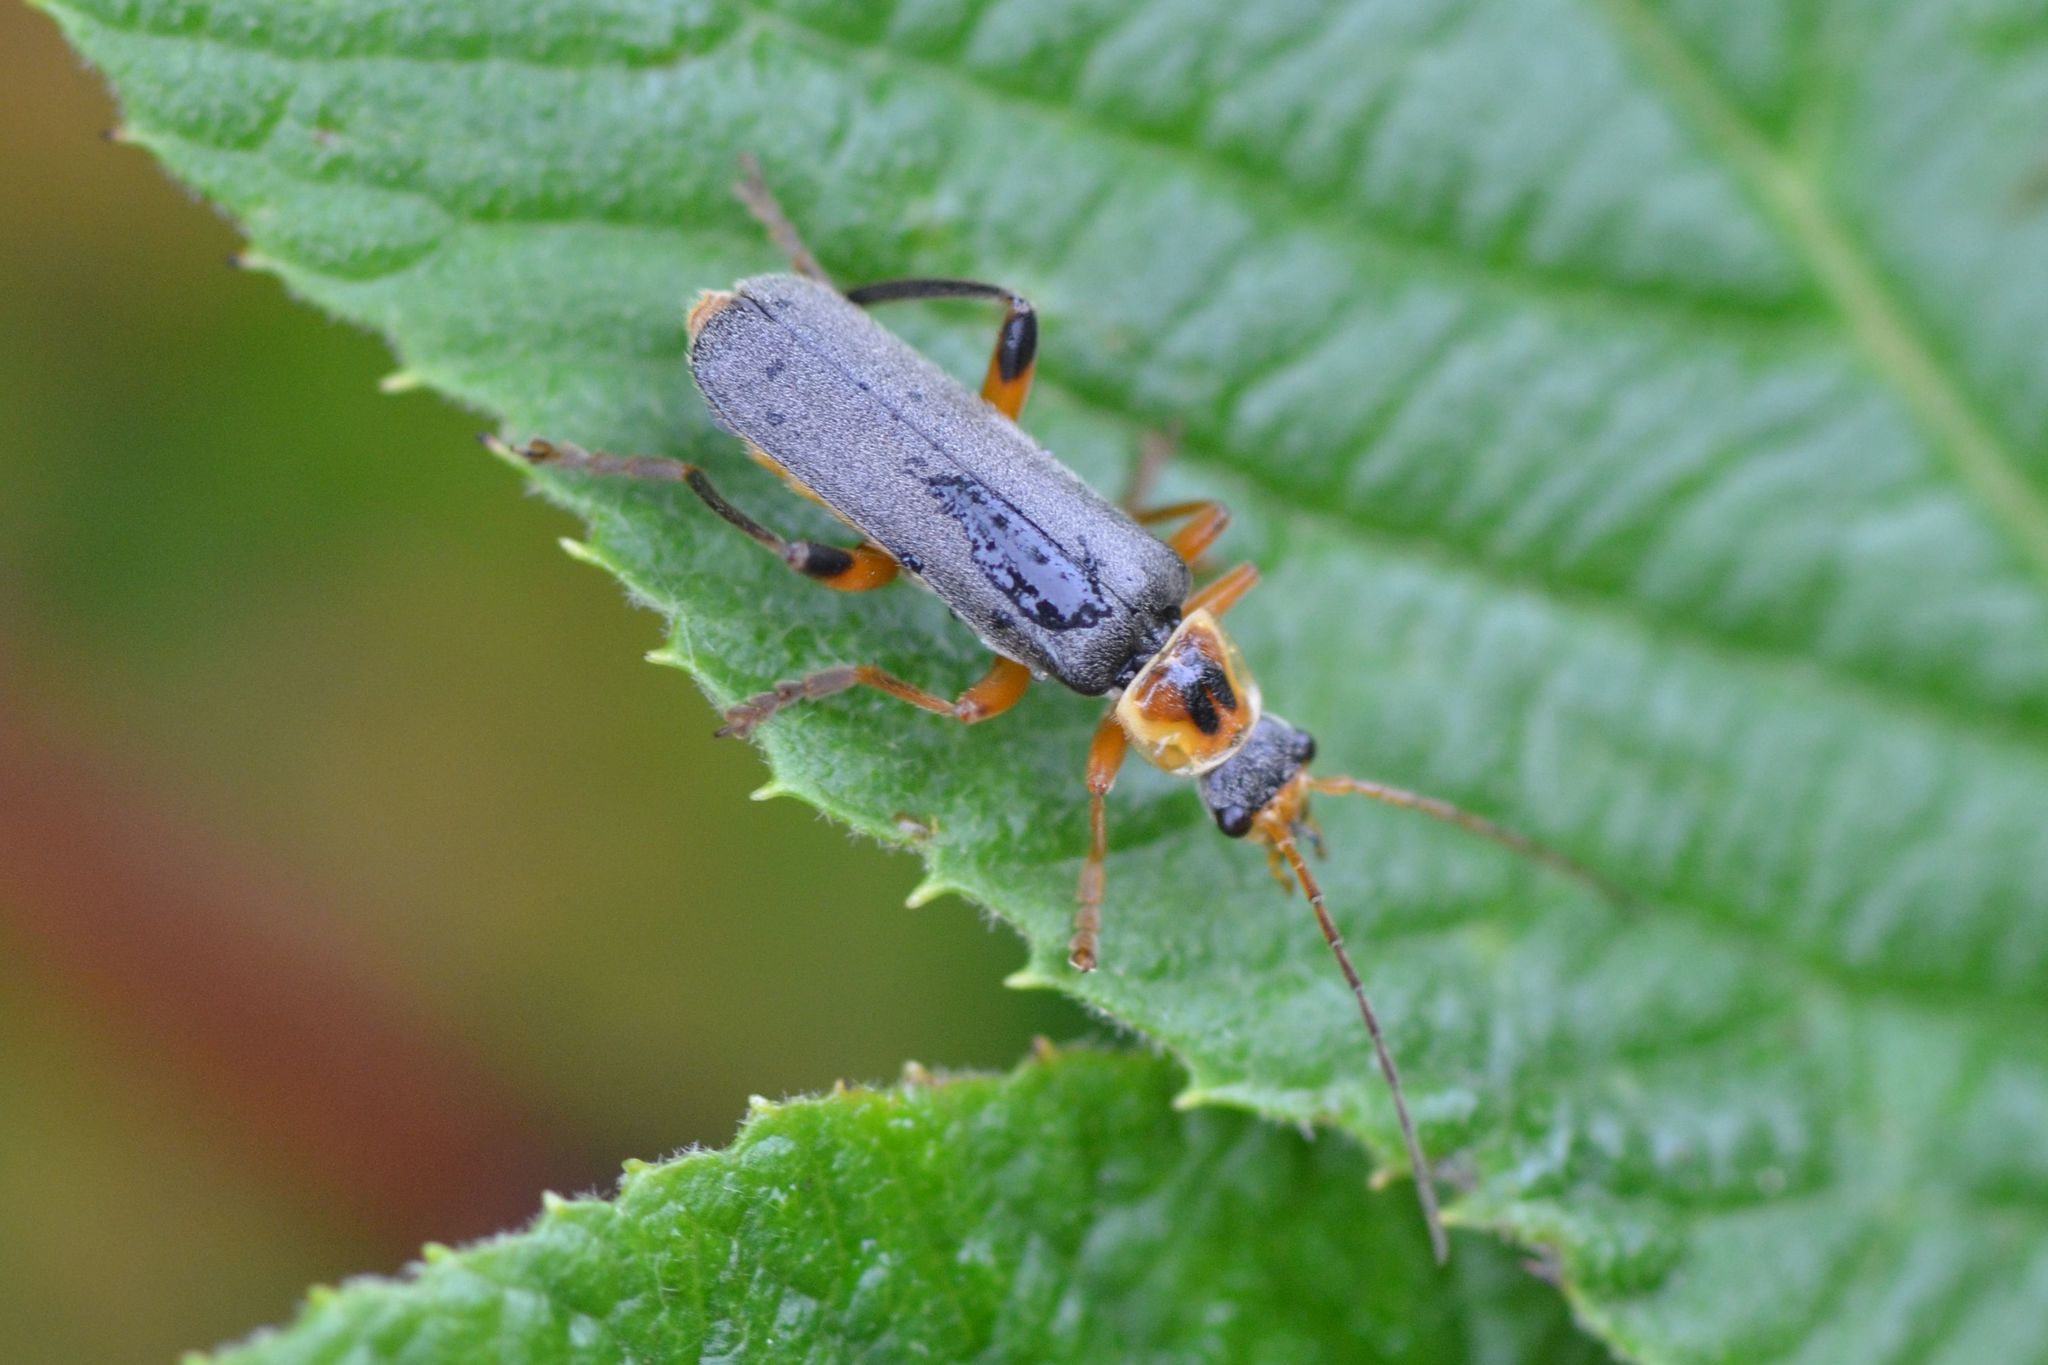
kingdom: Animalia
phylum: Arthropoda
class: Insecta
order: Coleoptera
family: Cantharidae
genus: Cantharis
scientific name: Cantharis nigricans
